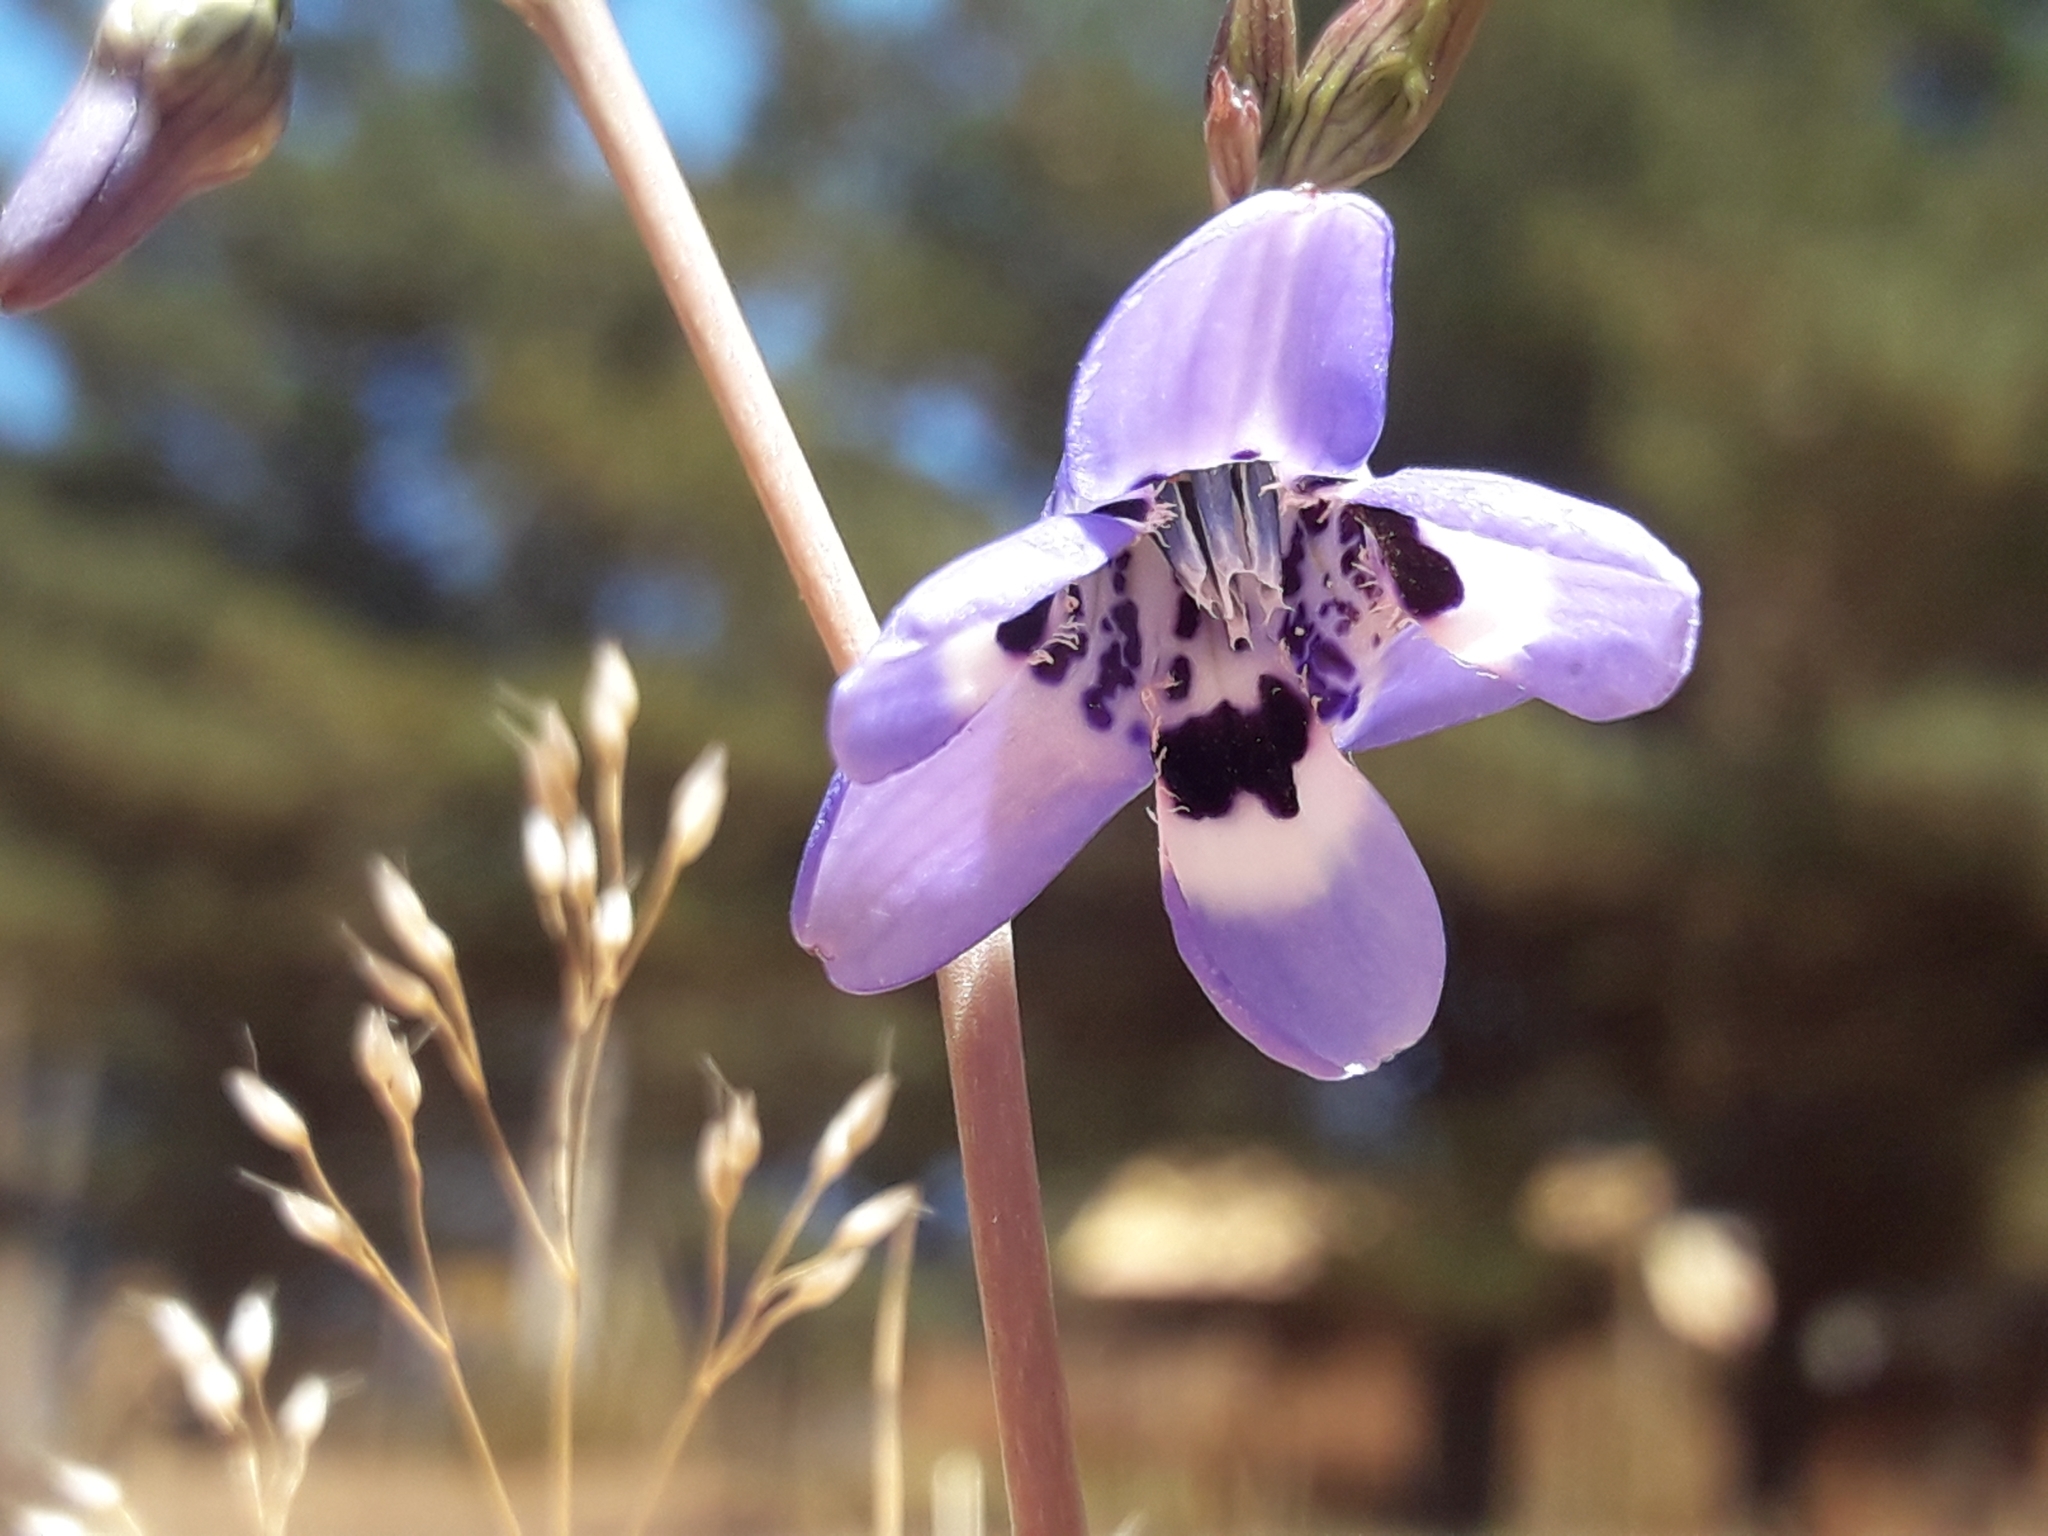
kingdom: Plantae
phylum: Tracheophyta
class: Liliopsida
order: Asparagales
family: Tecophilaeaceae
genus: Conanthera
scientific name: Conanthera trimaculata
